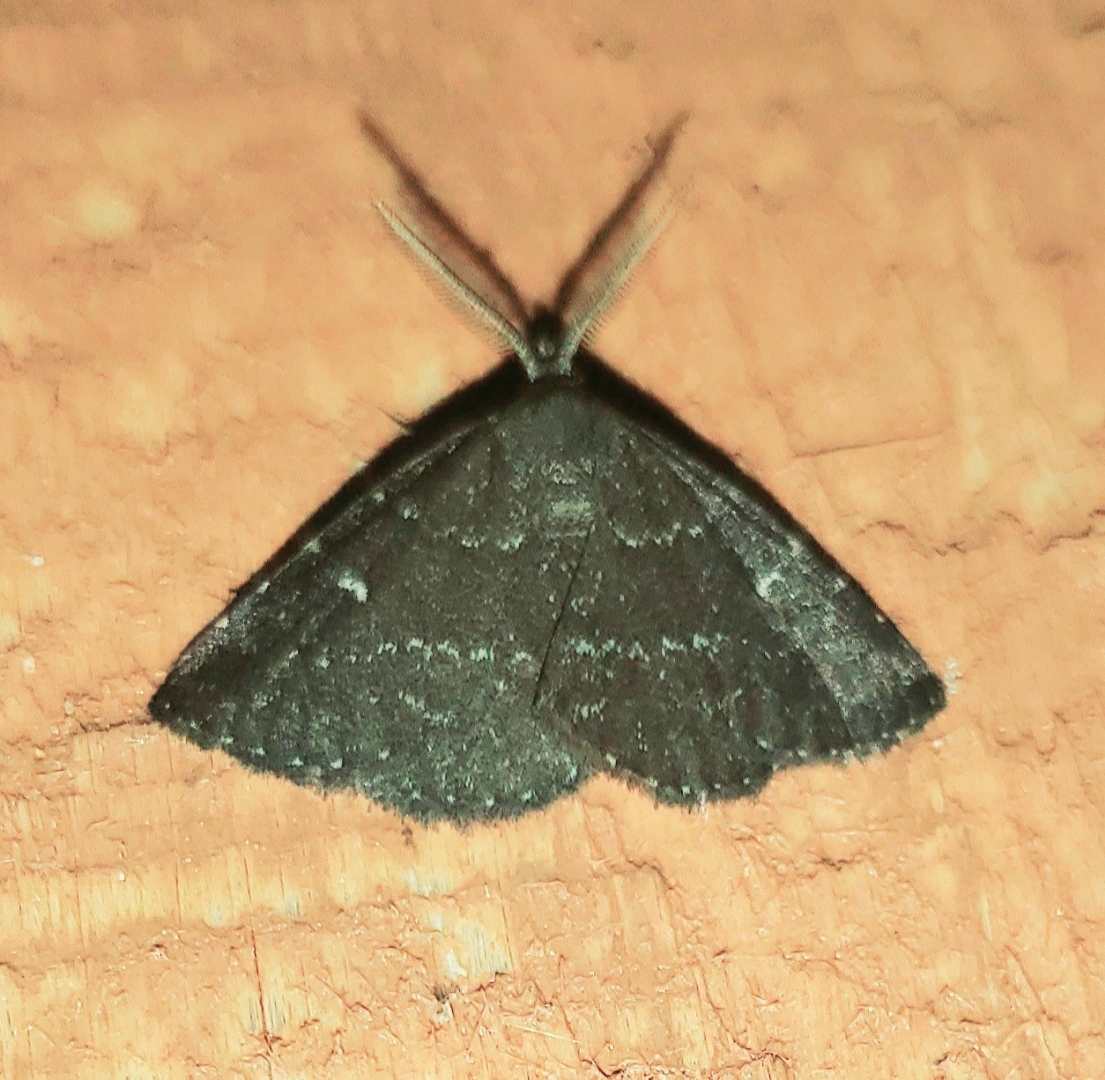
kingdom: Animalia
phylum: Arthropoda
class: Insecta
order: Lepidoptera
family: Erebidae
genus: Prosoparia
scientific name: Prosoparia floridana
